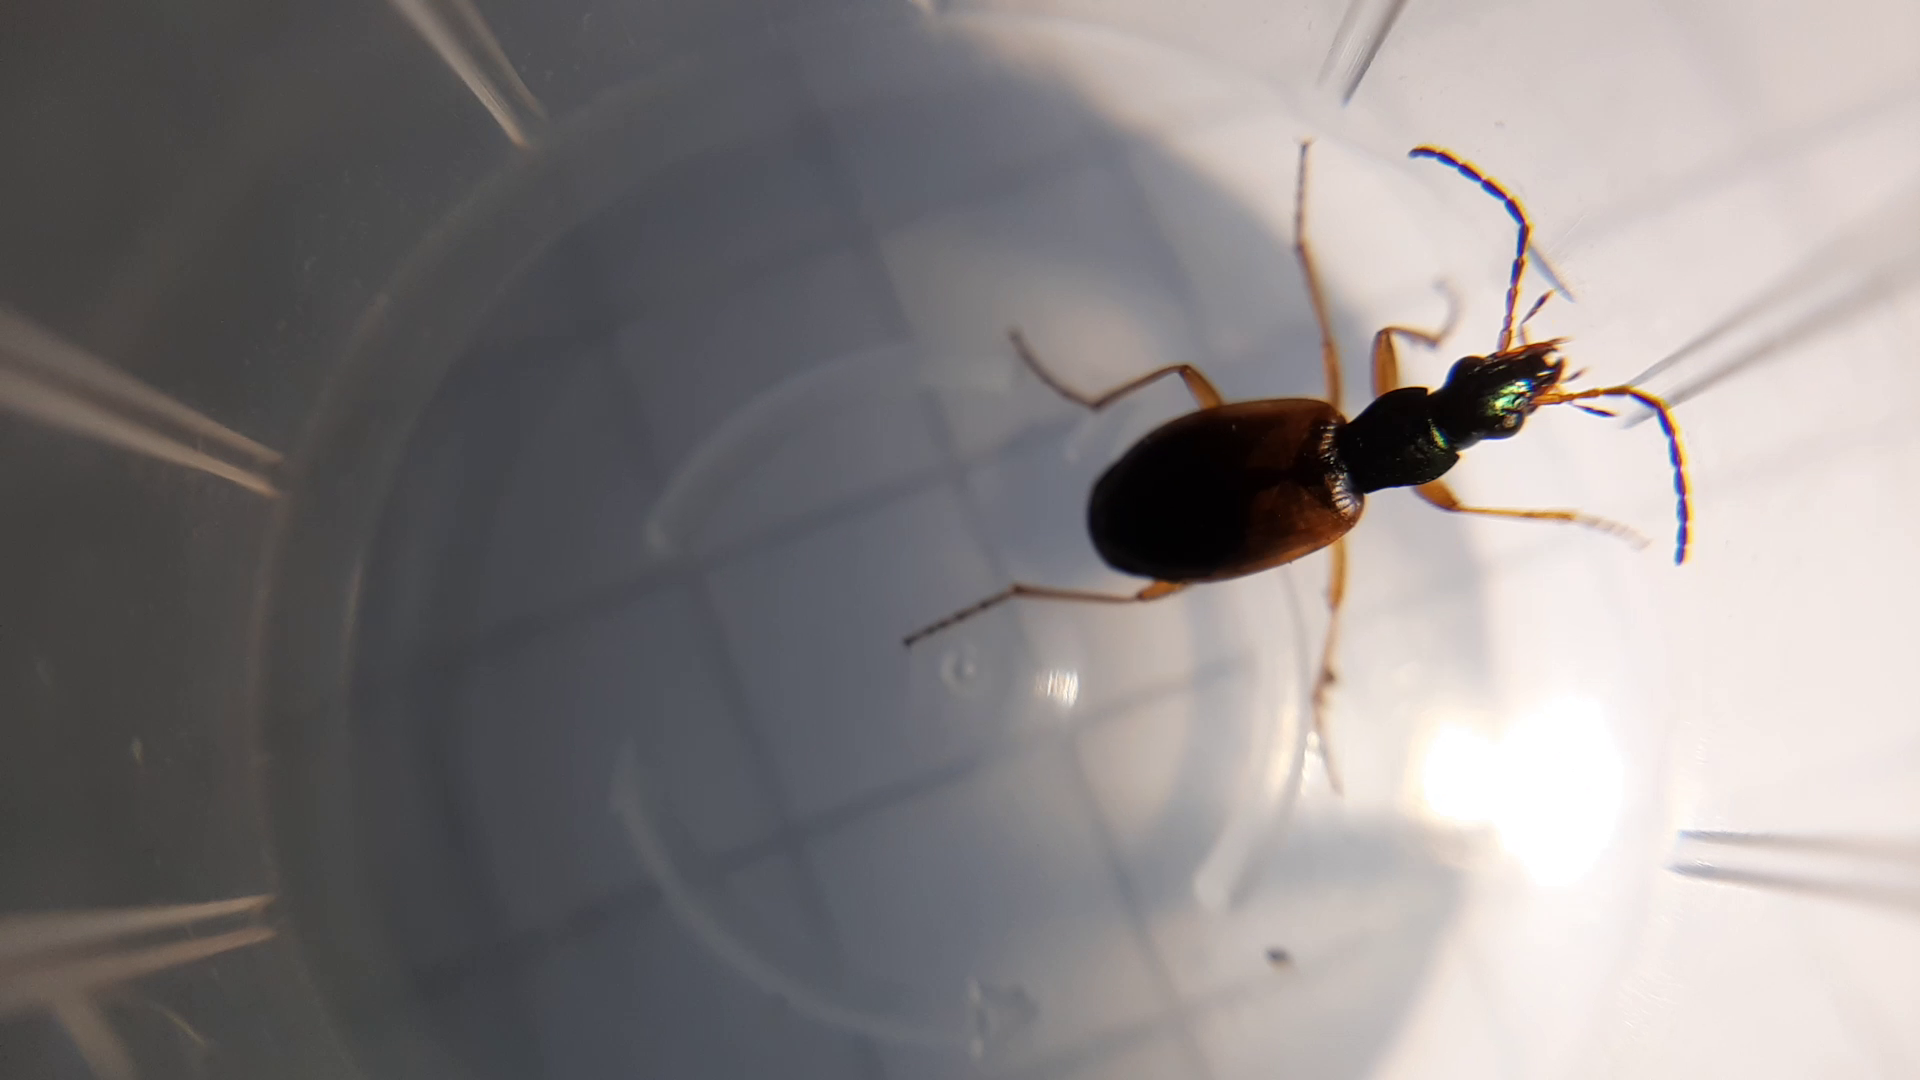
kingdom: Animalia
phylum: Arthropoda
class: Insecta
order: Coleoptera
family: Carabidae
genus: Anchomenus
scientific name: Anchomenus dorsalis
